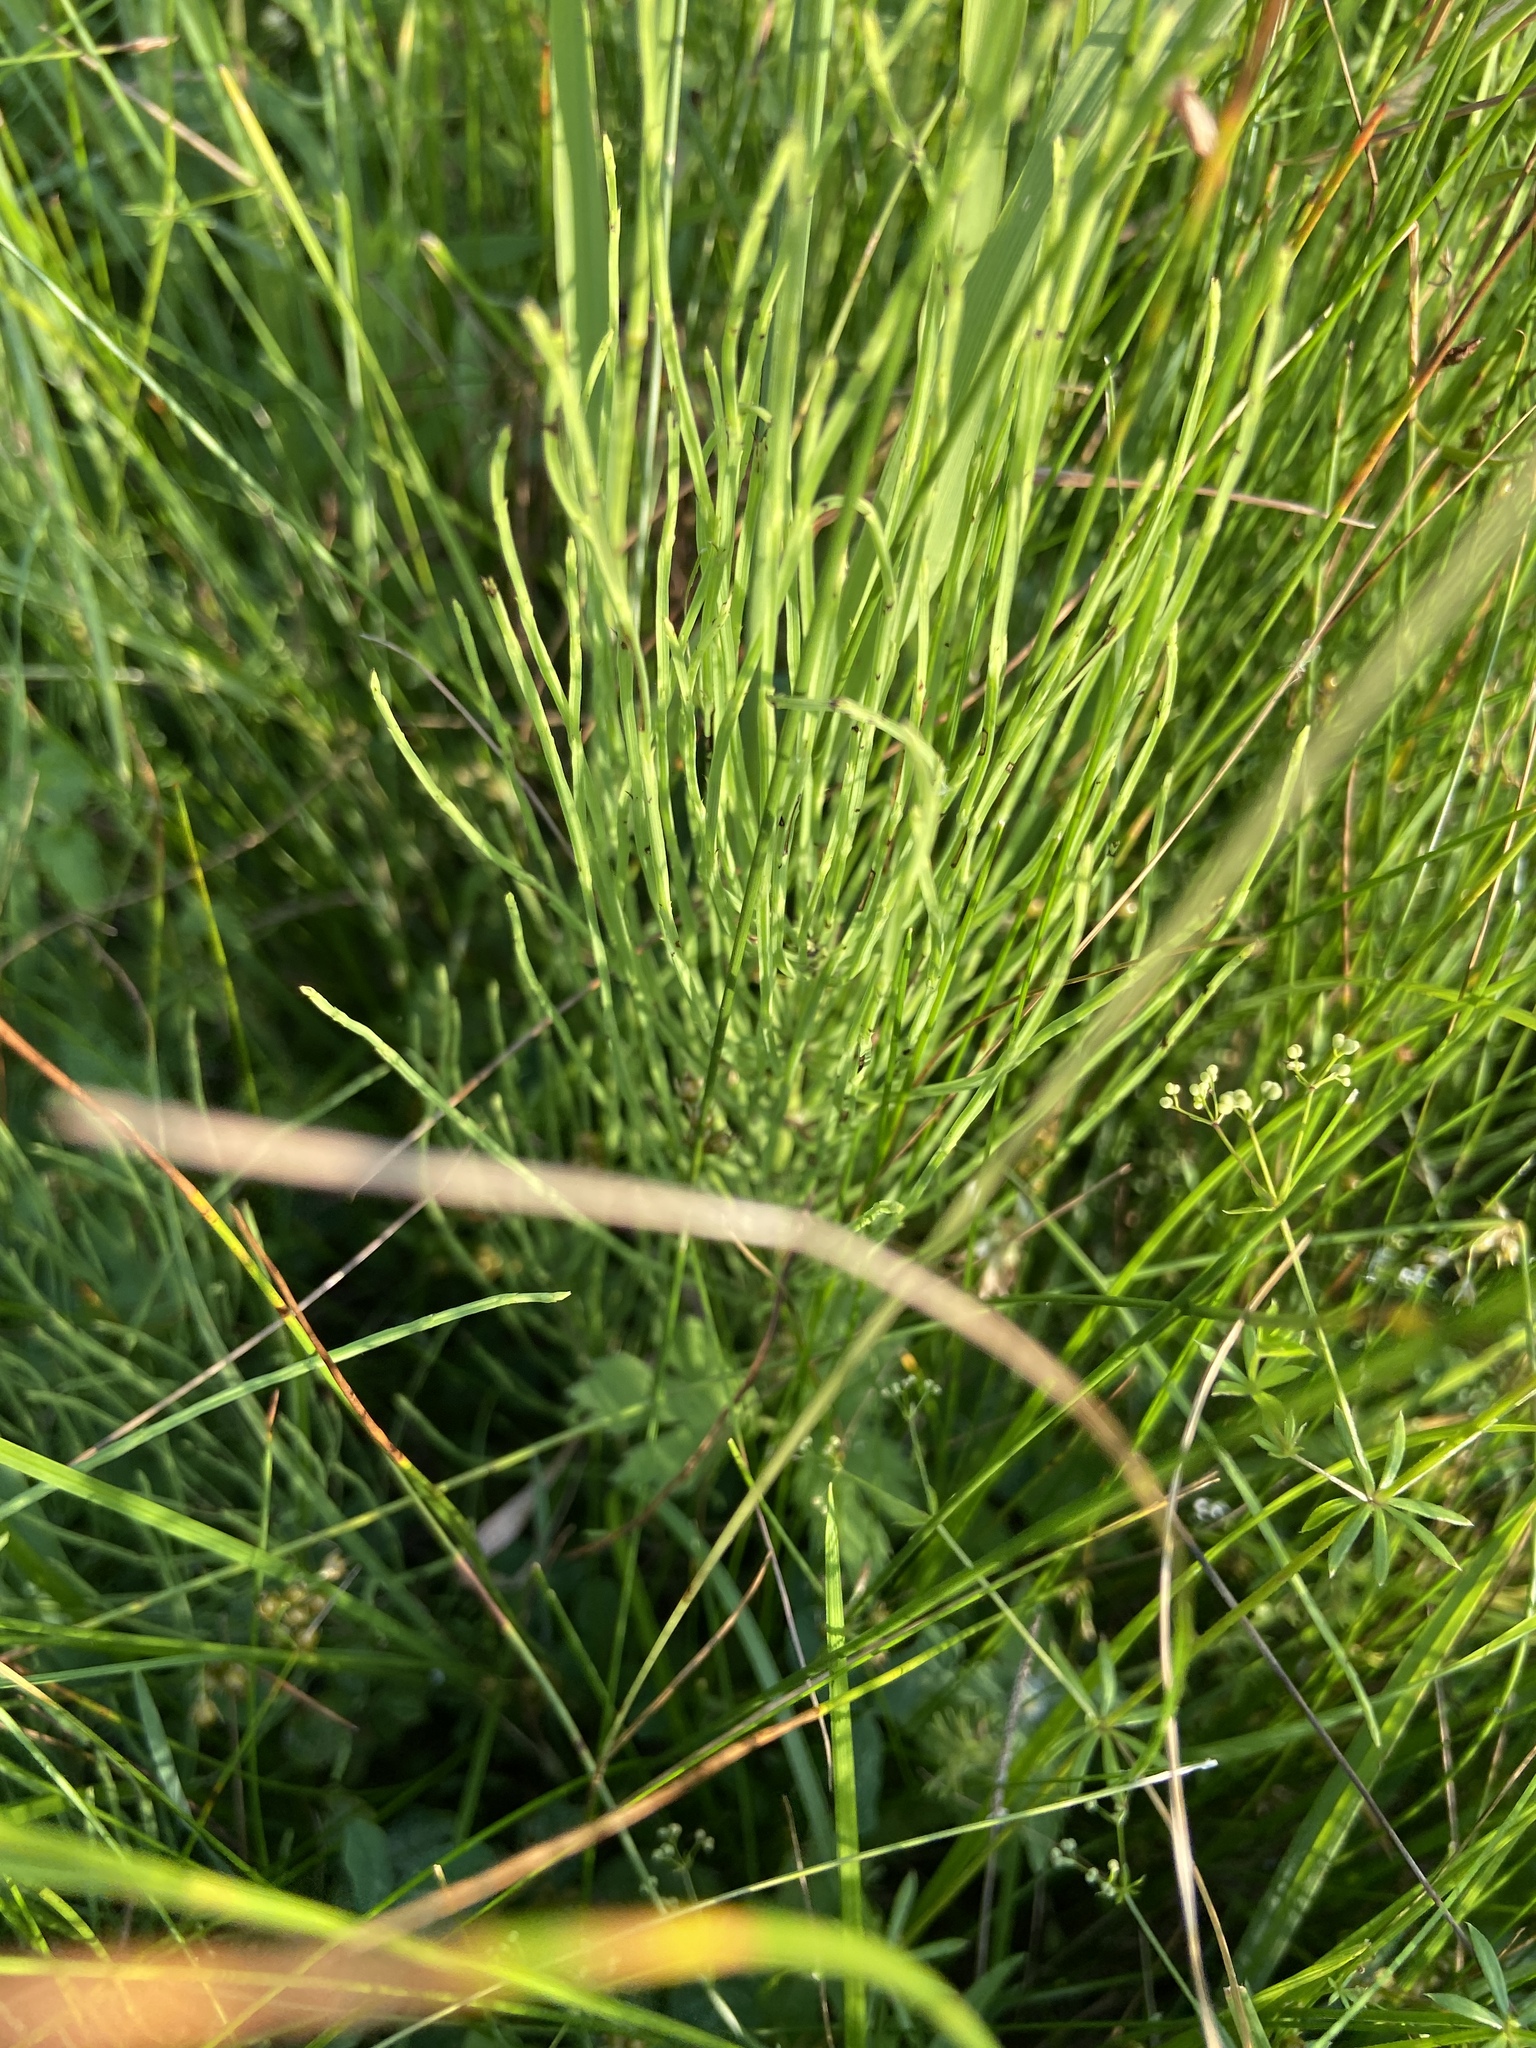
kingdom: Plantae
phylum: Tracheophyta
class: Polypodiopsida
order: Equisetales
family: Equisetaceae
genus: Equisetum
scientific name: Equisetum arvense
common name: Field horsetail
